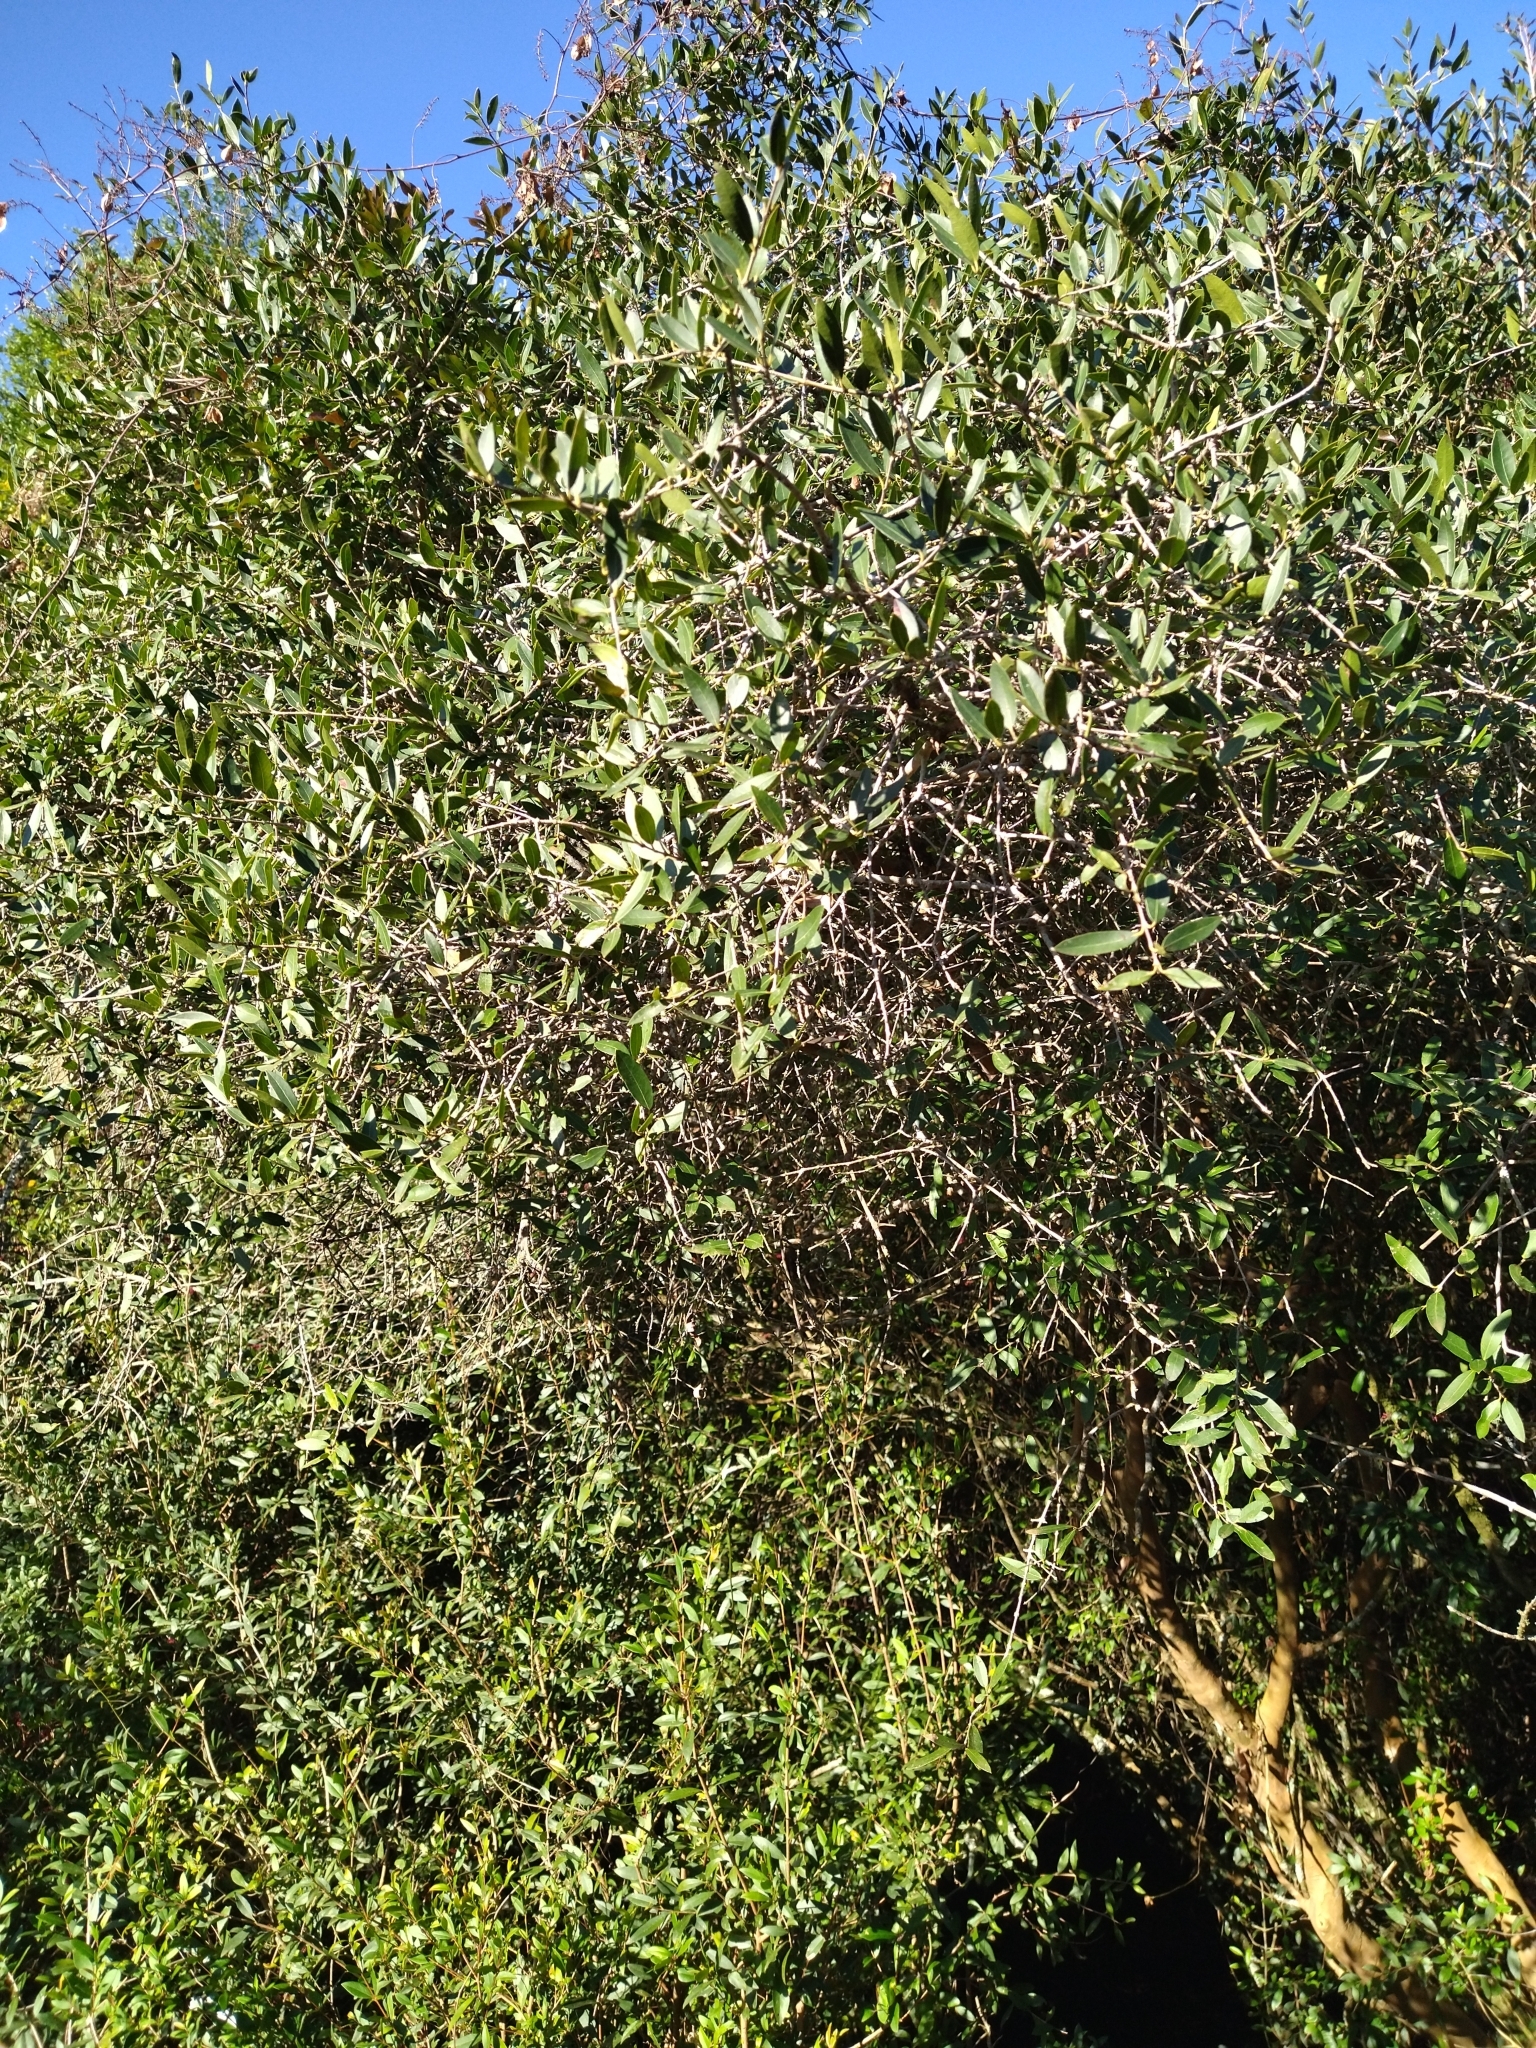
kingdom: Plantae
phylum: Tracheophyta
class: Magnoliopsida
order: Myrtales
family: Myrtaceae
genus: Myrcianthes
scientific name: Myrcianthes cisplatensis
